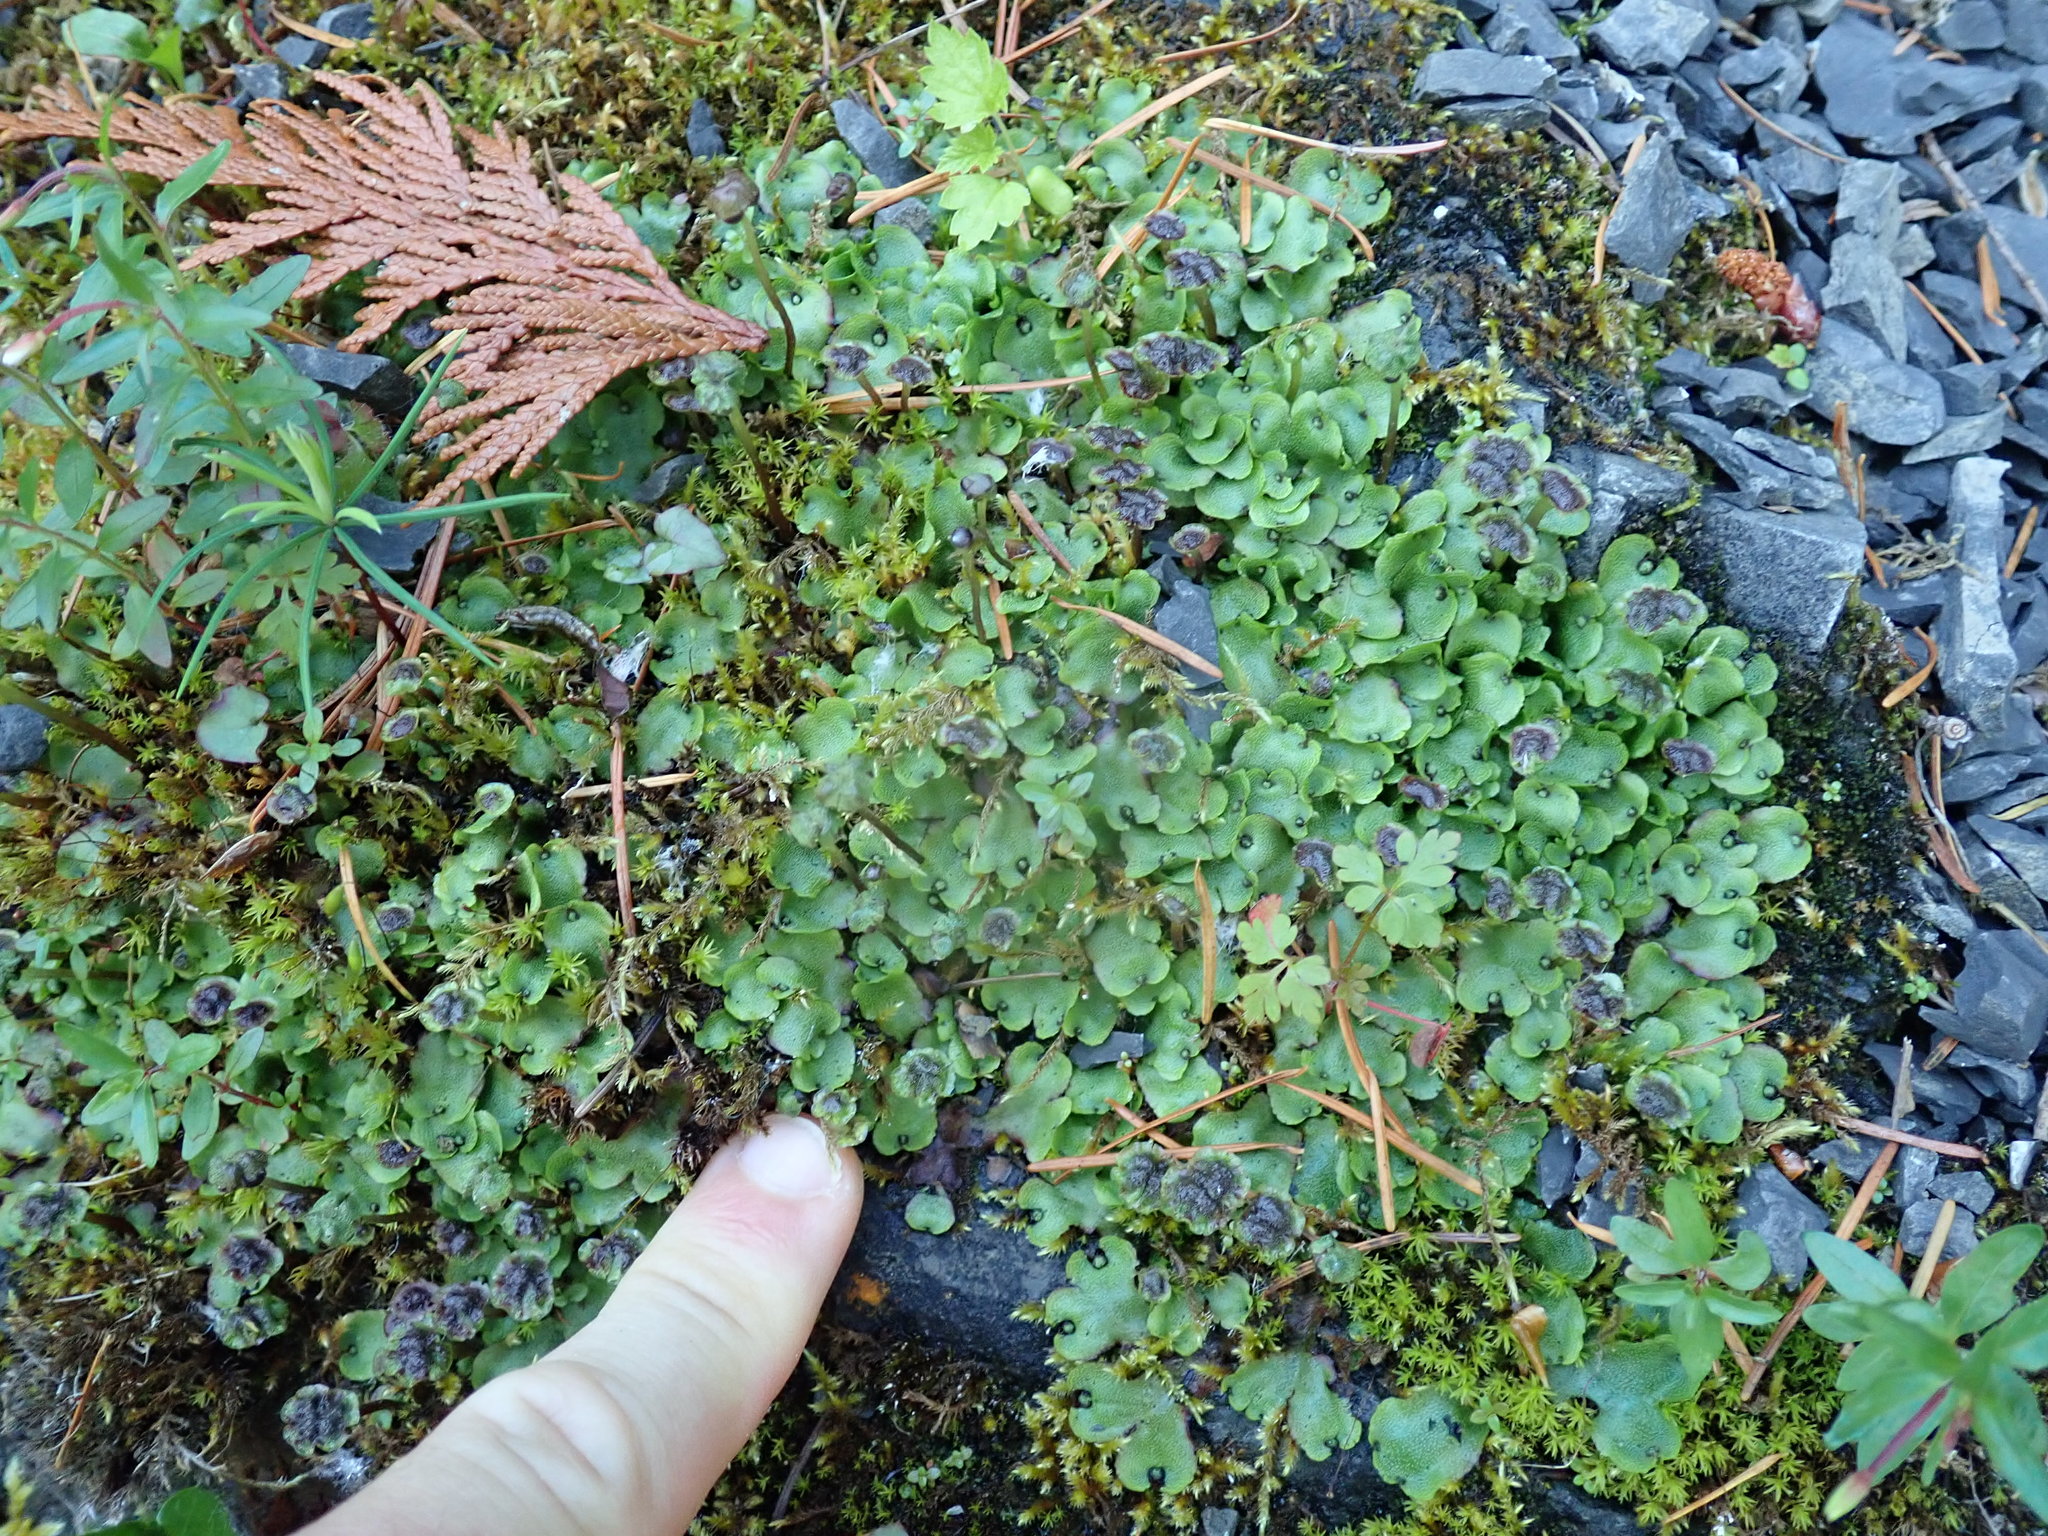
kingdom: Plantae
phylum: Marchantiophyta
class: Marchantiopsida
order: Marchantiales
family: Marchantiaceae
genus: Marchantia
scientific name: Marchantia quadrata
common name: Narrow mushroom-headed liverwort
